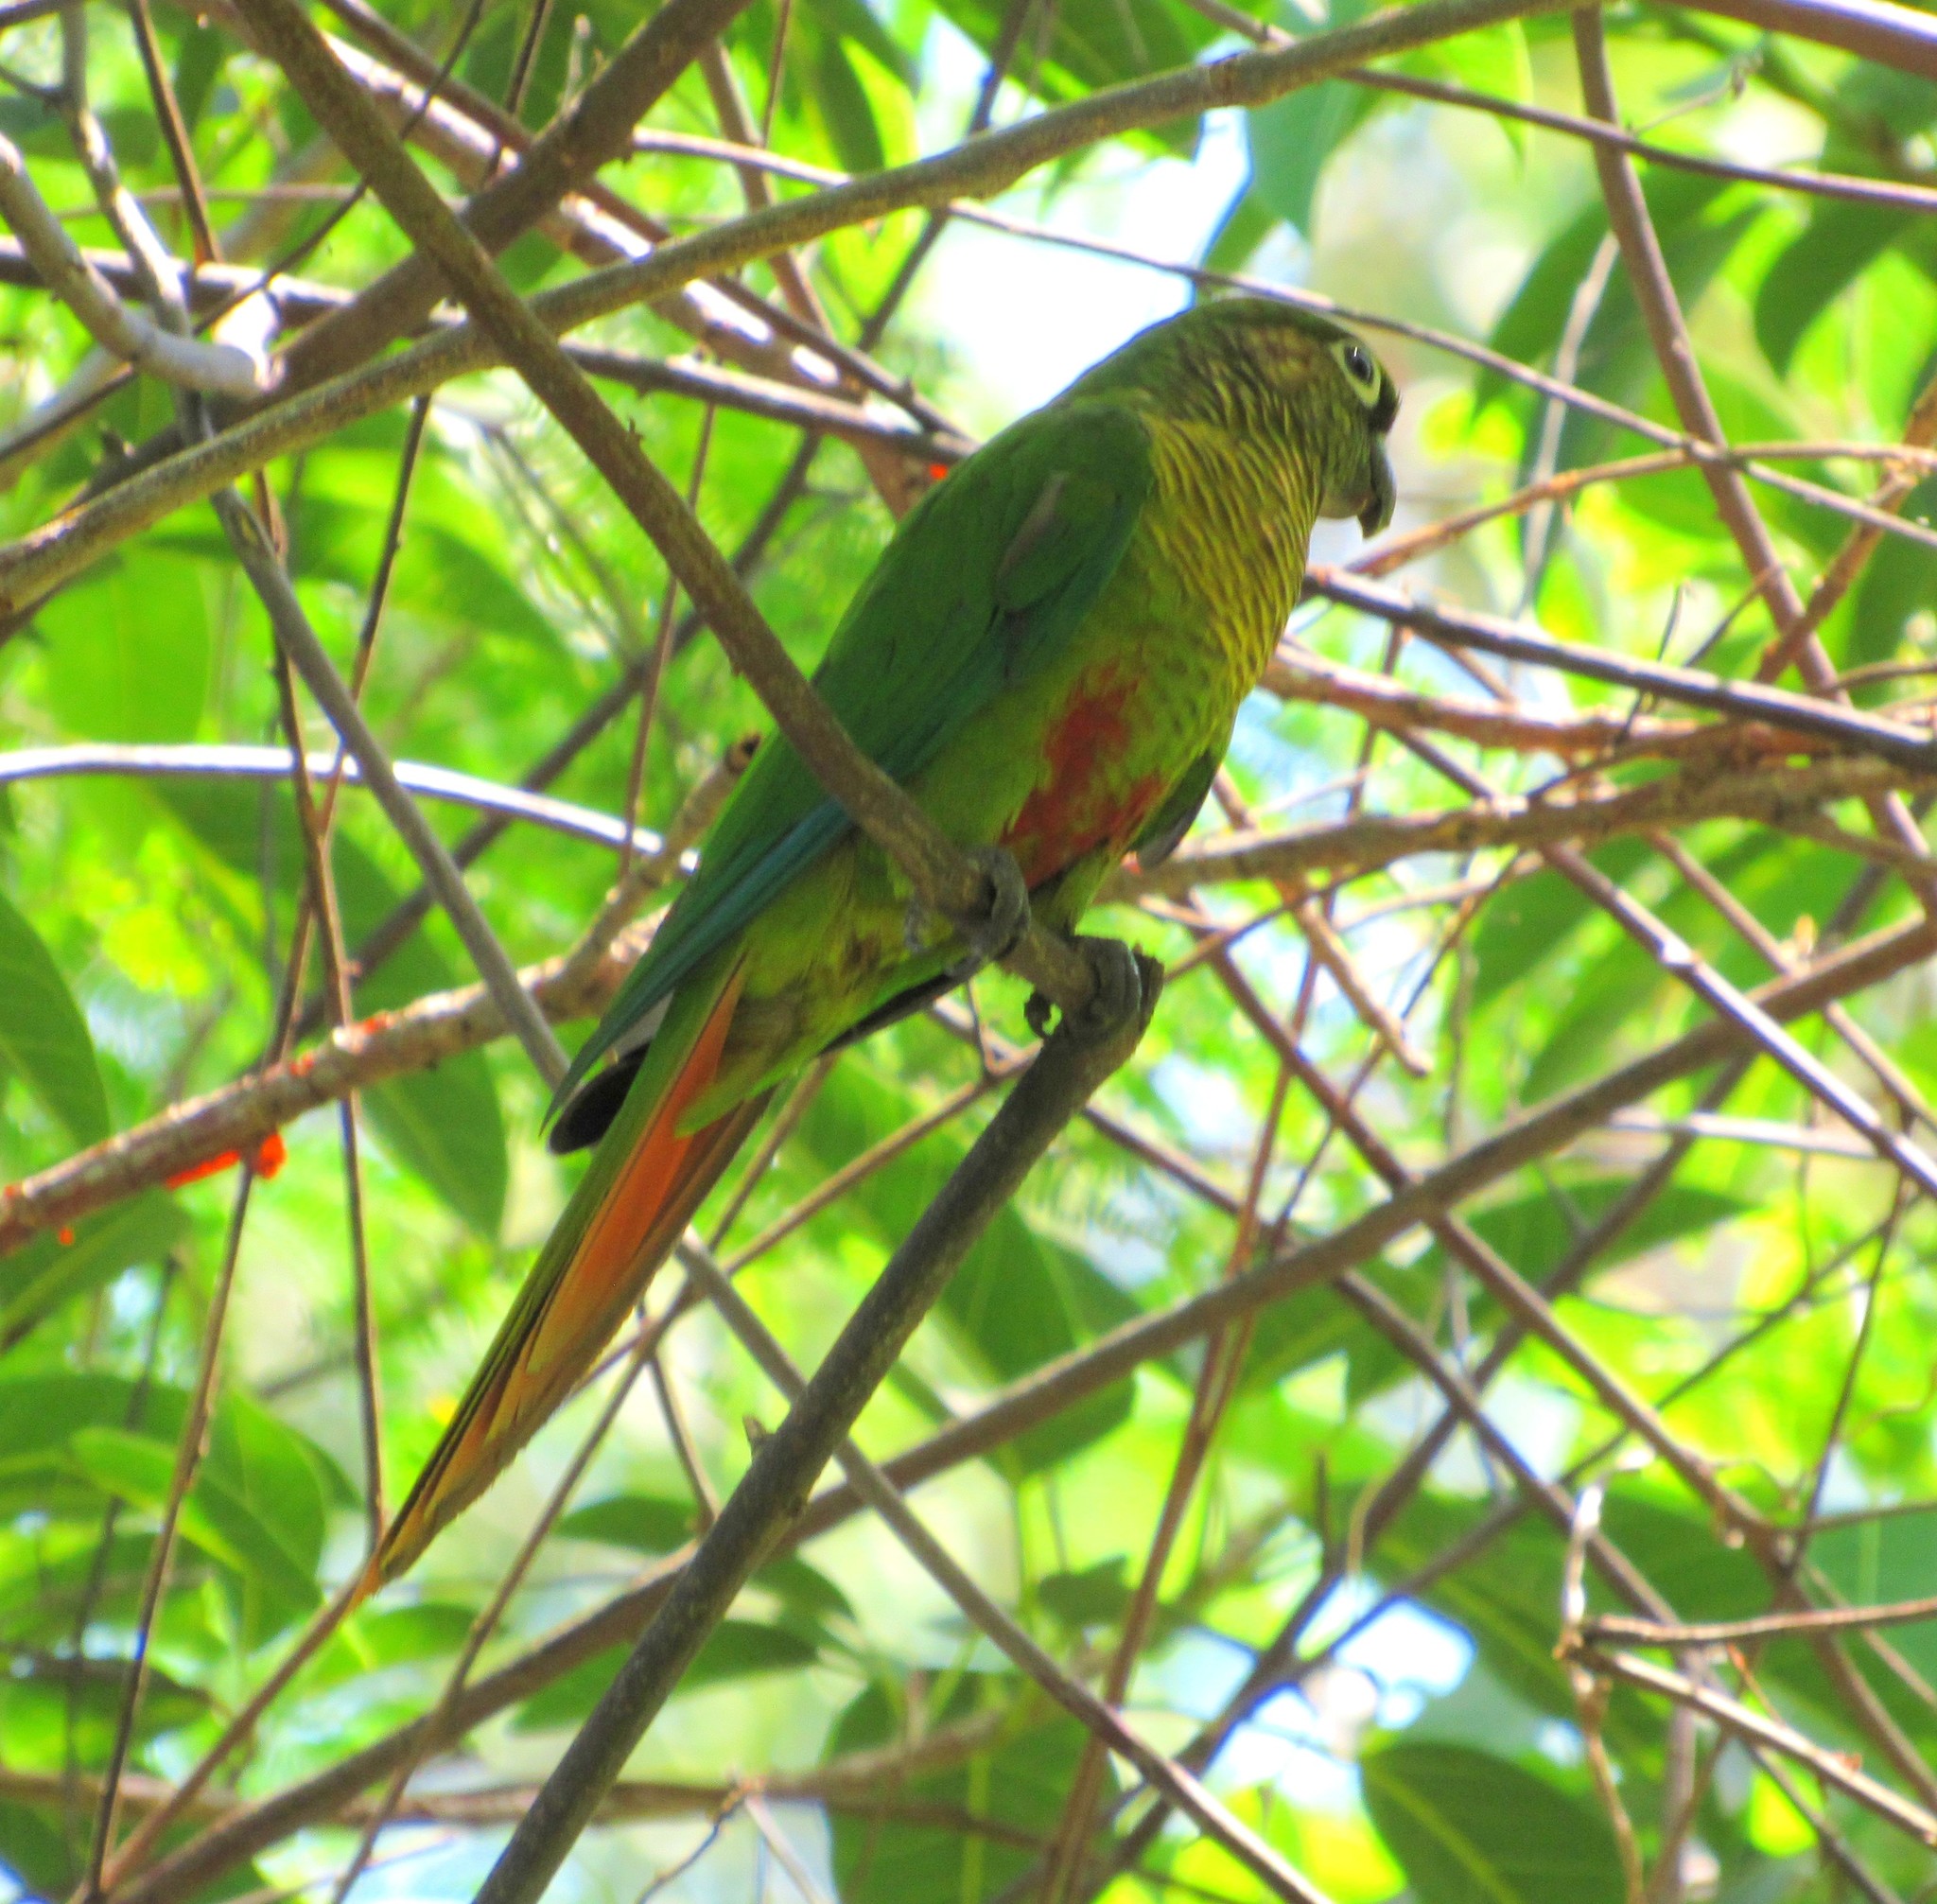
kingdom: Animalia
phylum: Chordata
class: Aves
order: Psittaciformes
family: Psittacidae
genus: Pyrrhura
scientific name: Pyrrhura frontalis
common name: Maroon-bellied parakeet
